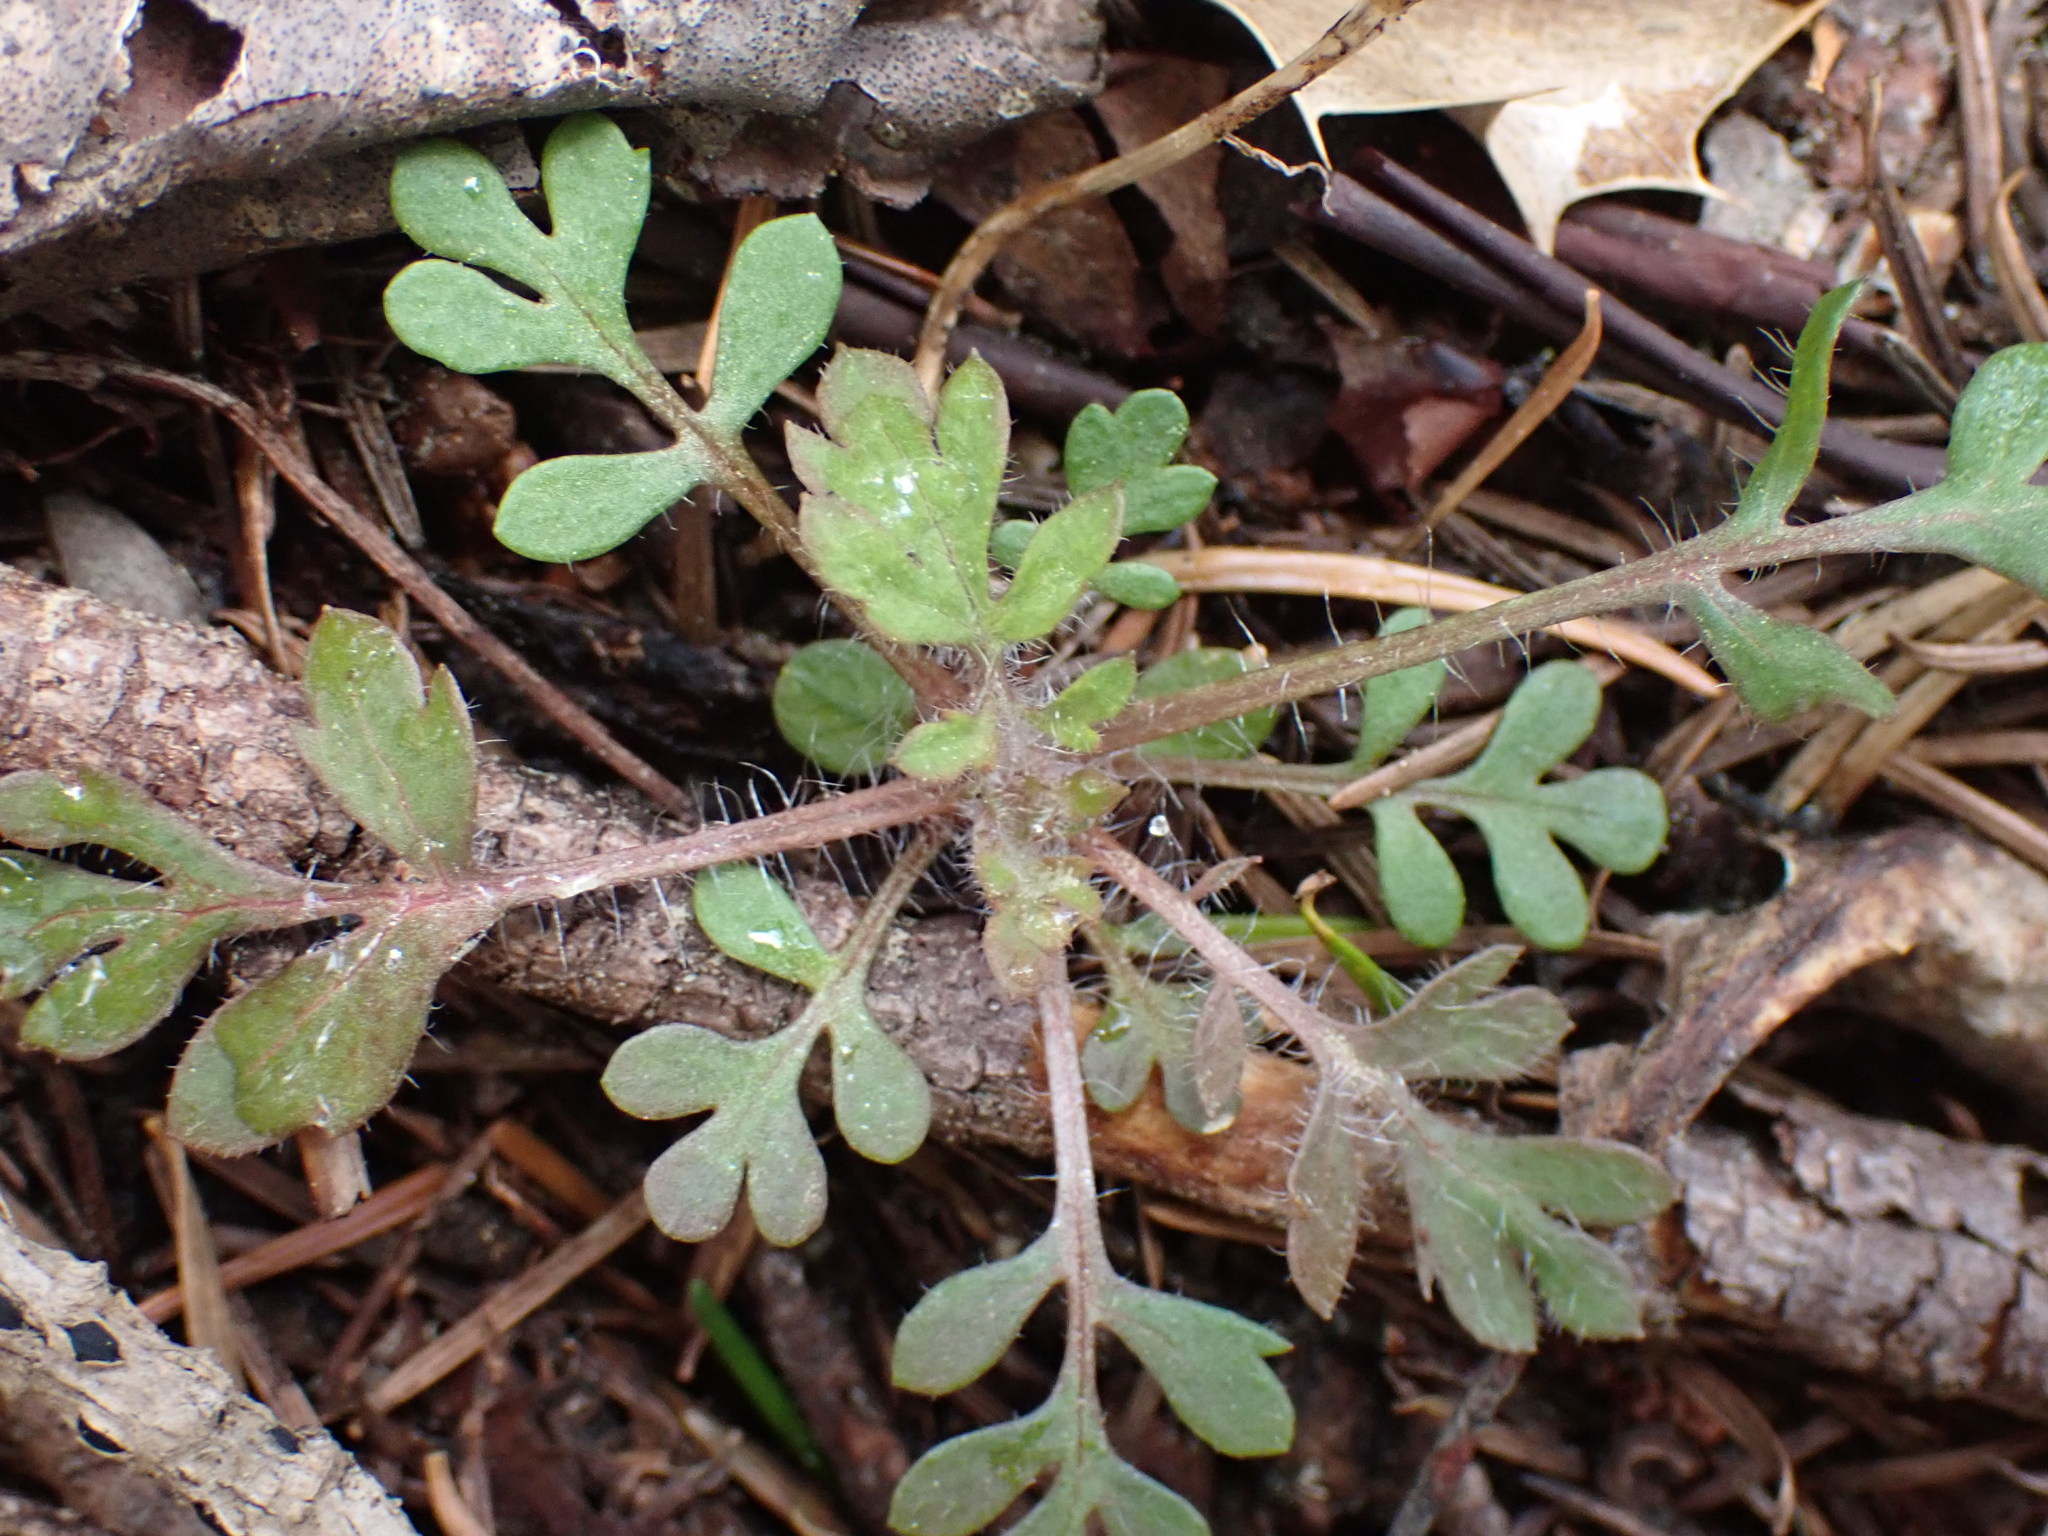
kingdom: Plantae
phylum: Tracheophyta
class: Magnoliopsida
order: Ericales
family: Polemoniaceae
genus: Collomia
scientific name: Collomia heterophylla
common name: Variable-leaved collomia
